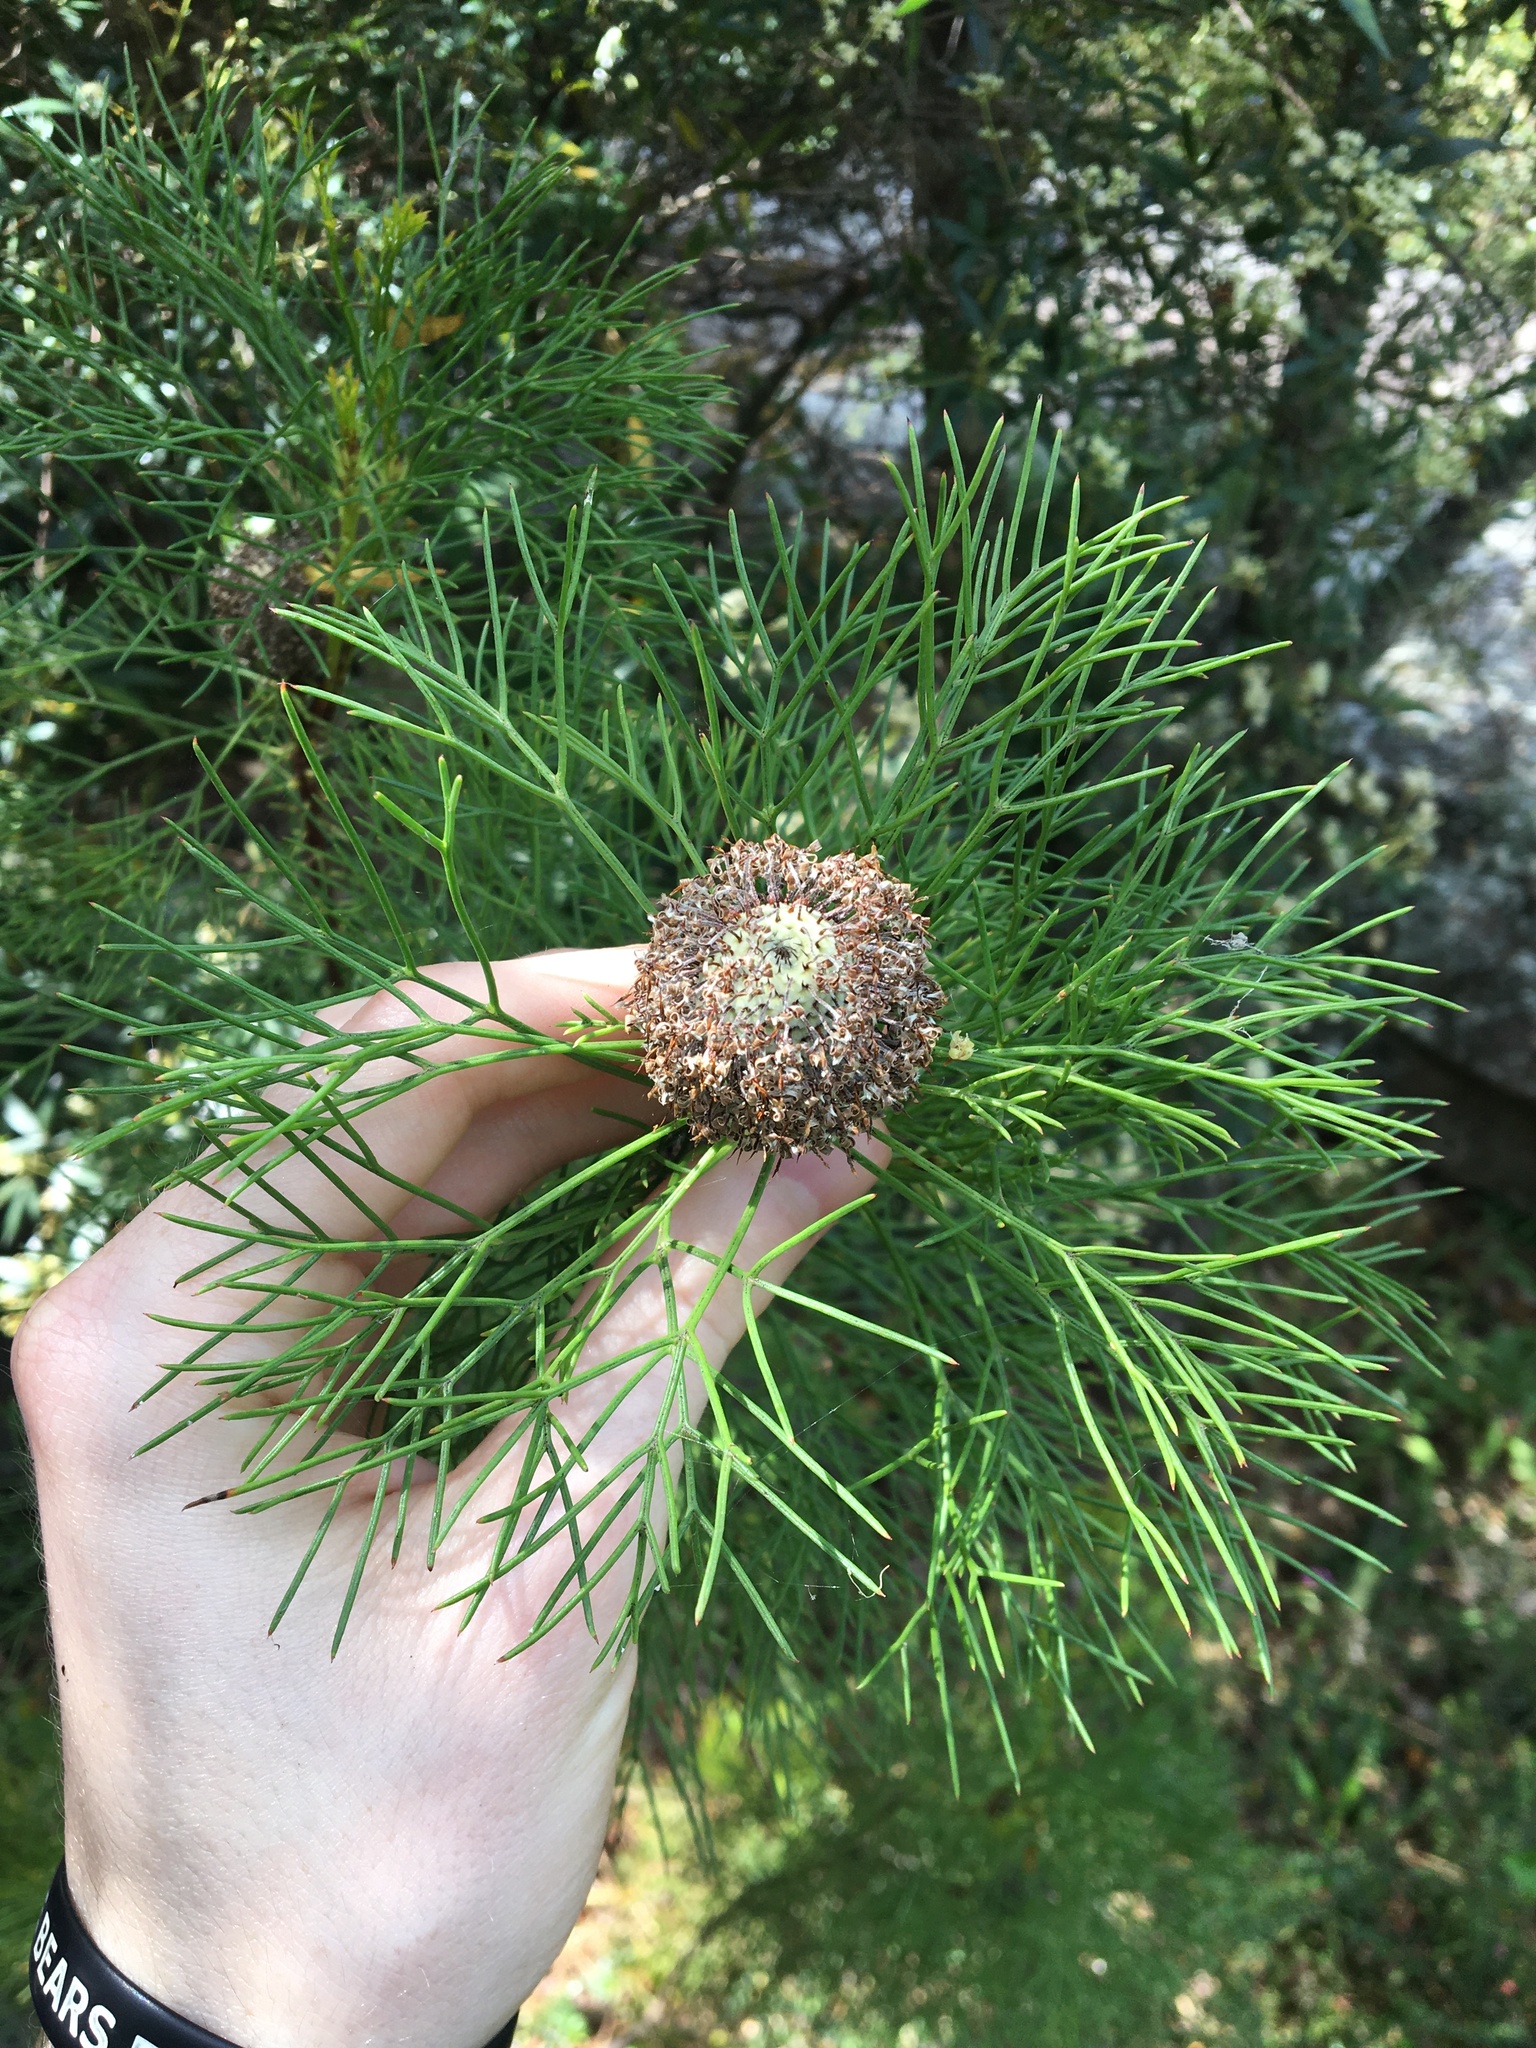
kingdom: Plantae
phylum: Tracheophyta
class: Magnoliopsida
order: Proteales
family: Proteaceae
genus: Isopogon
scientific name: Isopogon anethifolius
